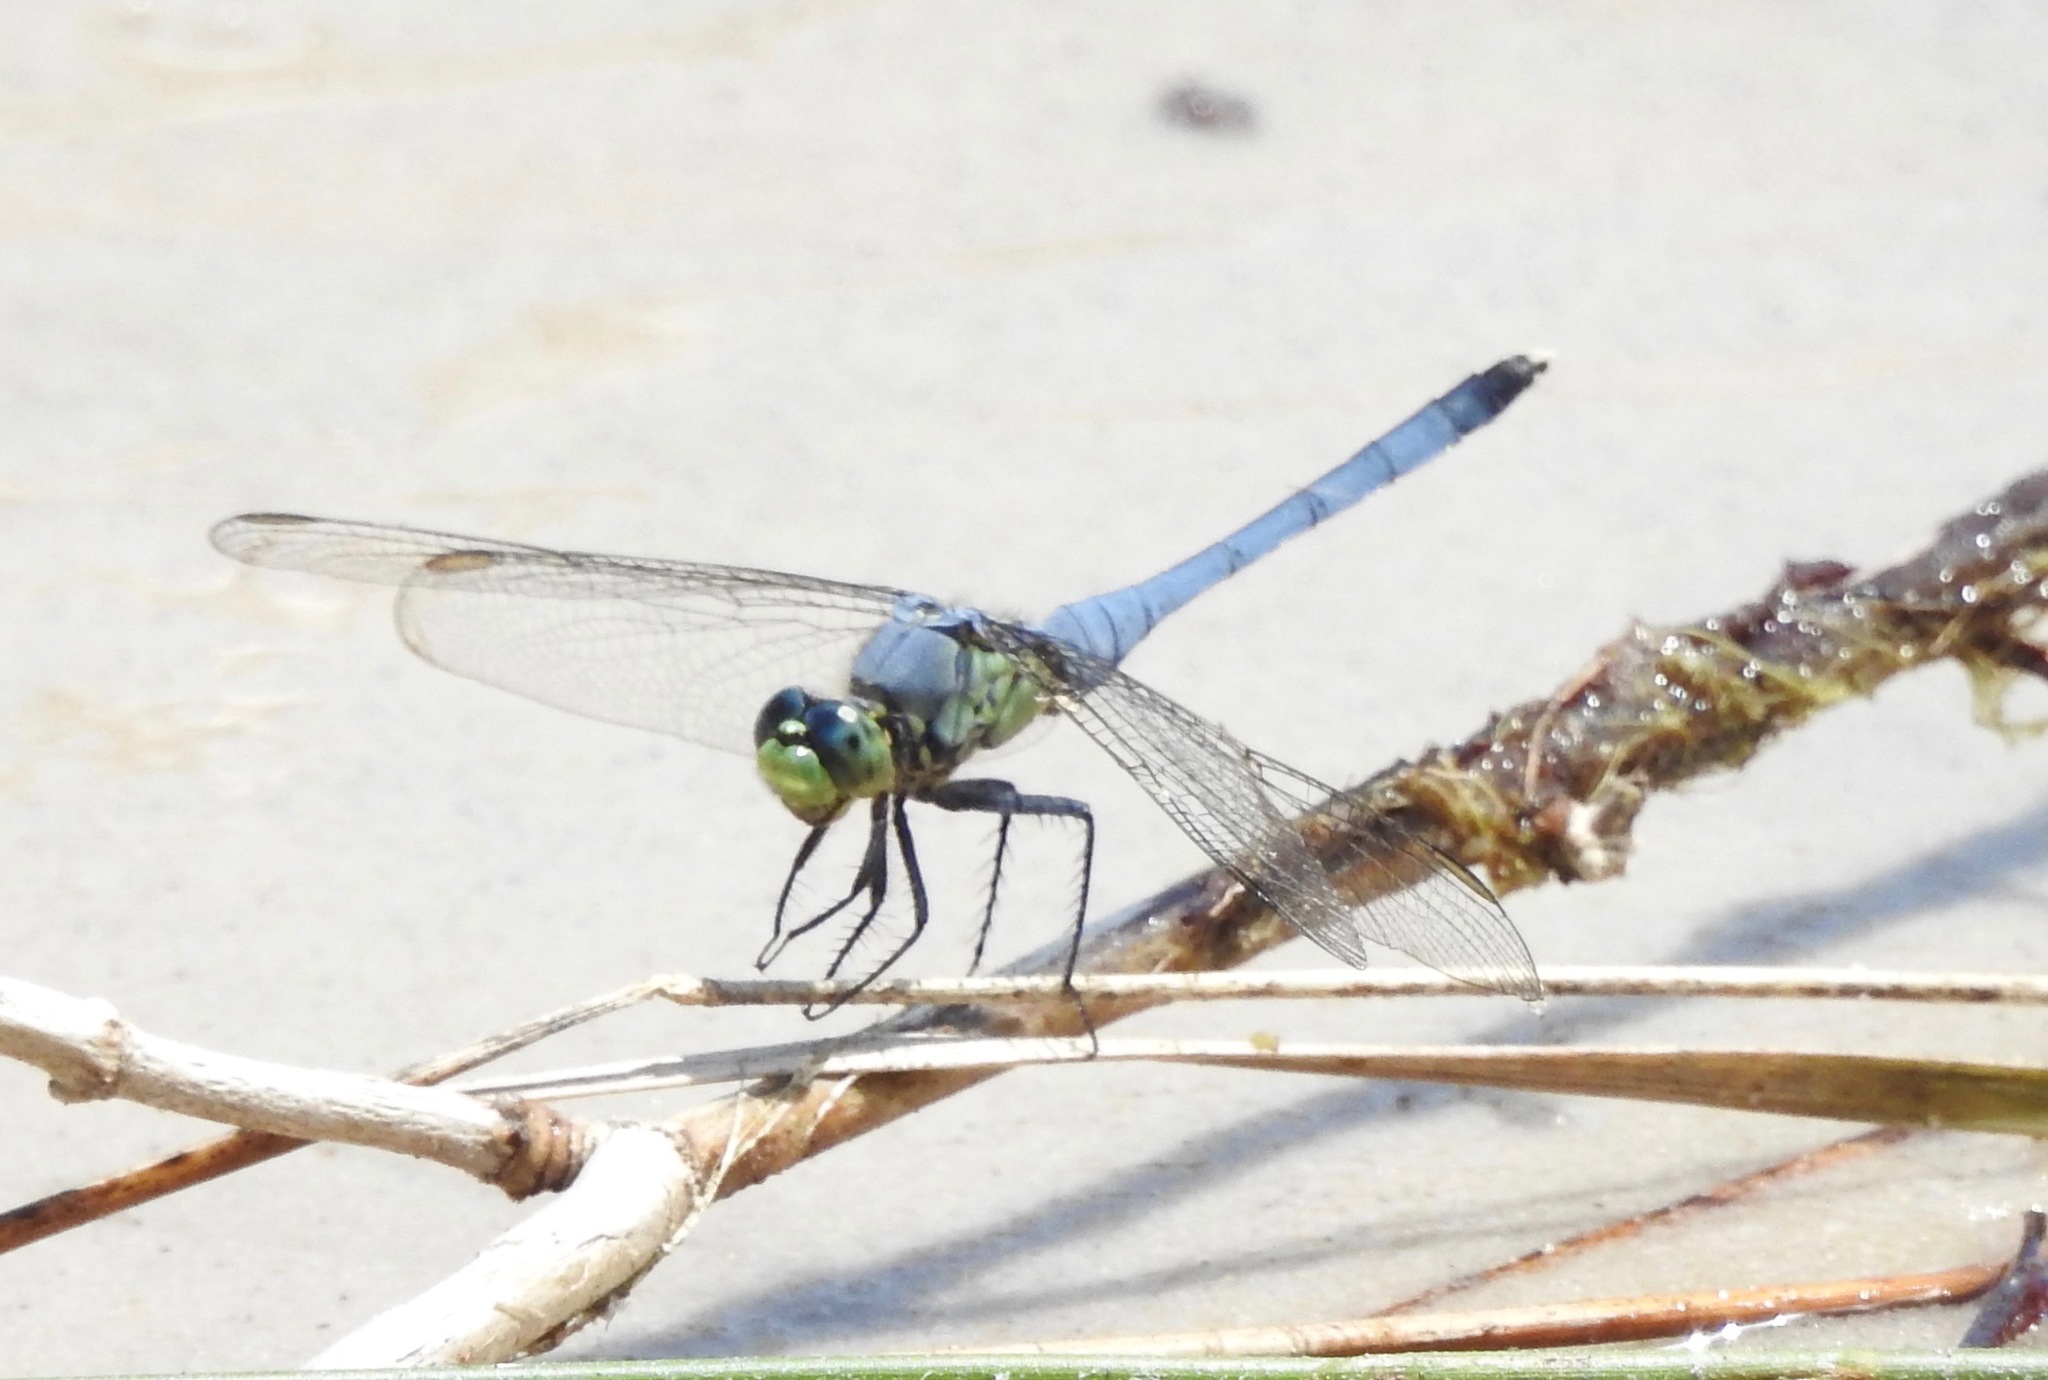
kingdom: Animalia
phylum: Arthropoda
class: Insecta
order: Odonata
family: Libellulidae
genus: Erythemis
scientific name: Erythemis simplicicollis
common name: Eastern pondhawk
